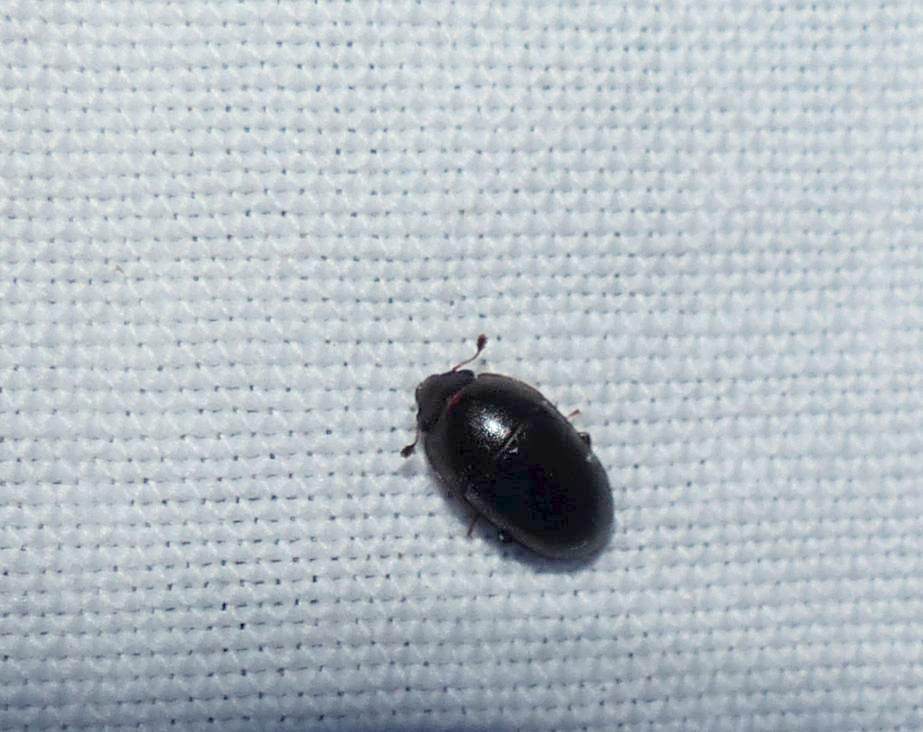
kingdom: Animalia
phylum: Arthropoda
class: Insecta
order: Coleoptera
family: Nitidulidae
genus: Cryptarcha
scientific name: Cryptarcha ampla
